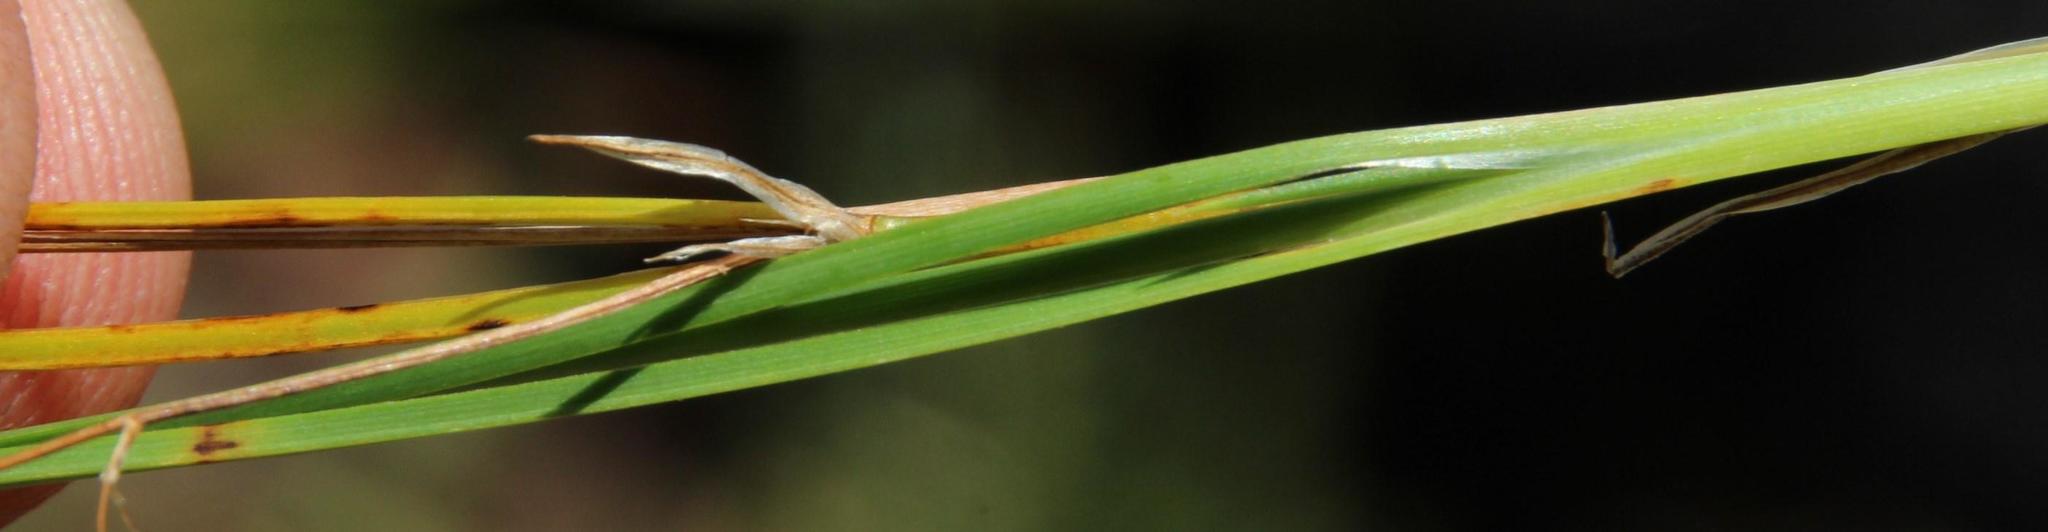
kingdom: Plantae
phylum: Tracheophyta
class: Liliopsida
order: Asparagales
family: Asphodelaceae
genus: Caesia
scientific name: Caesia contorta
